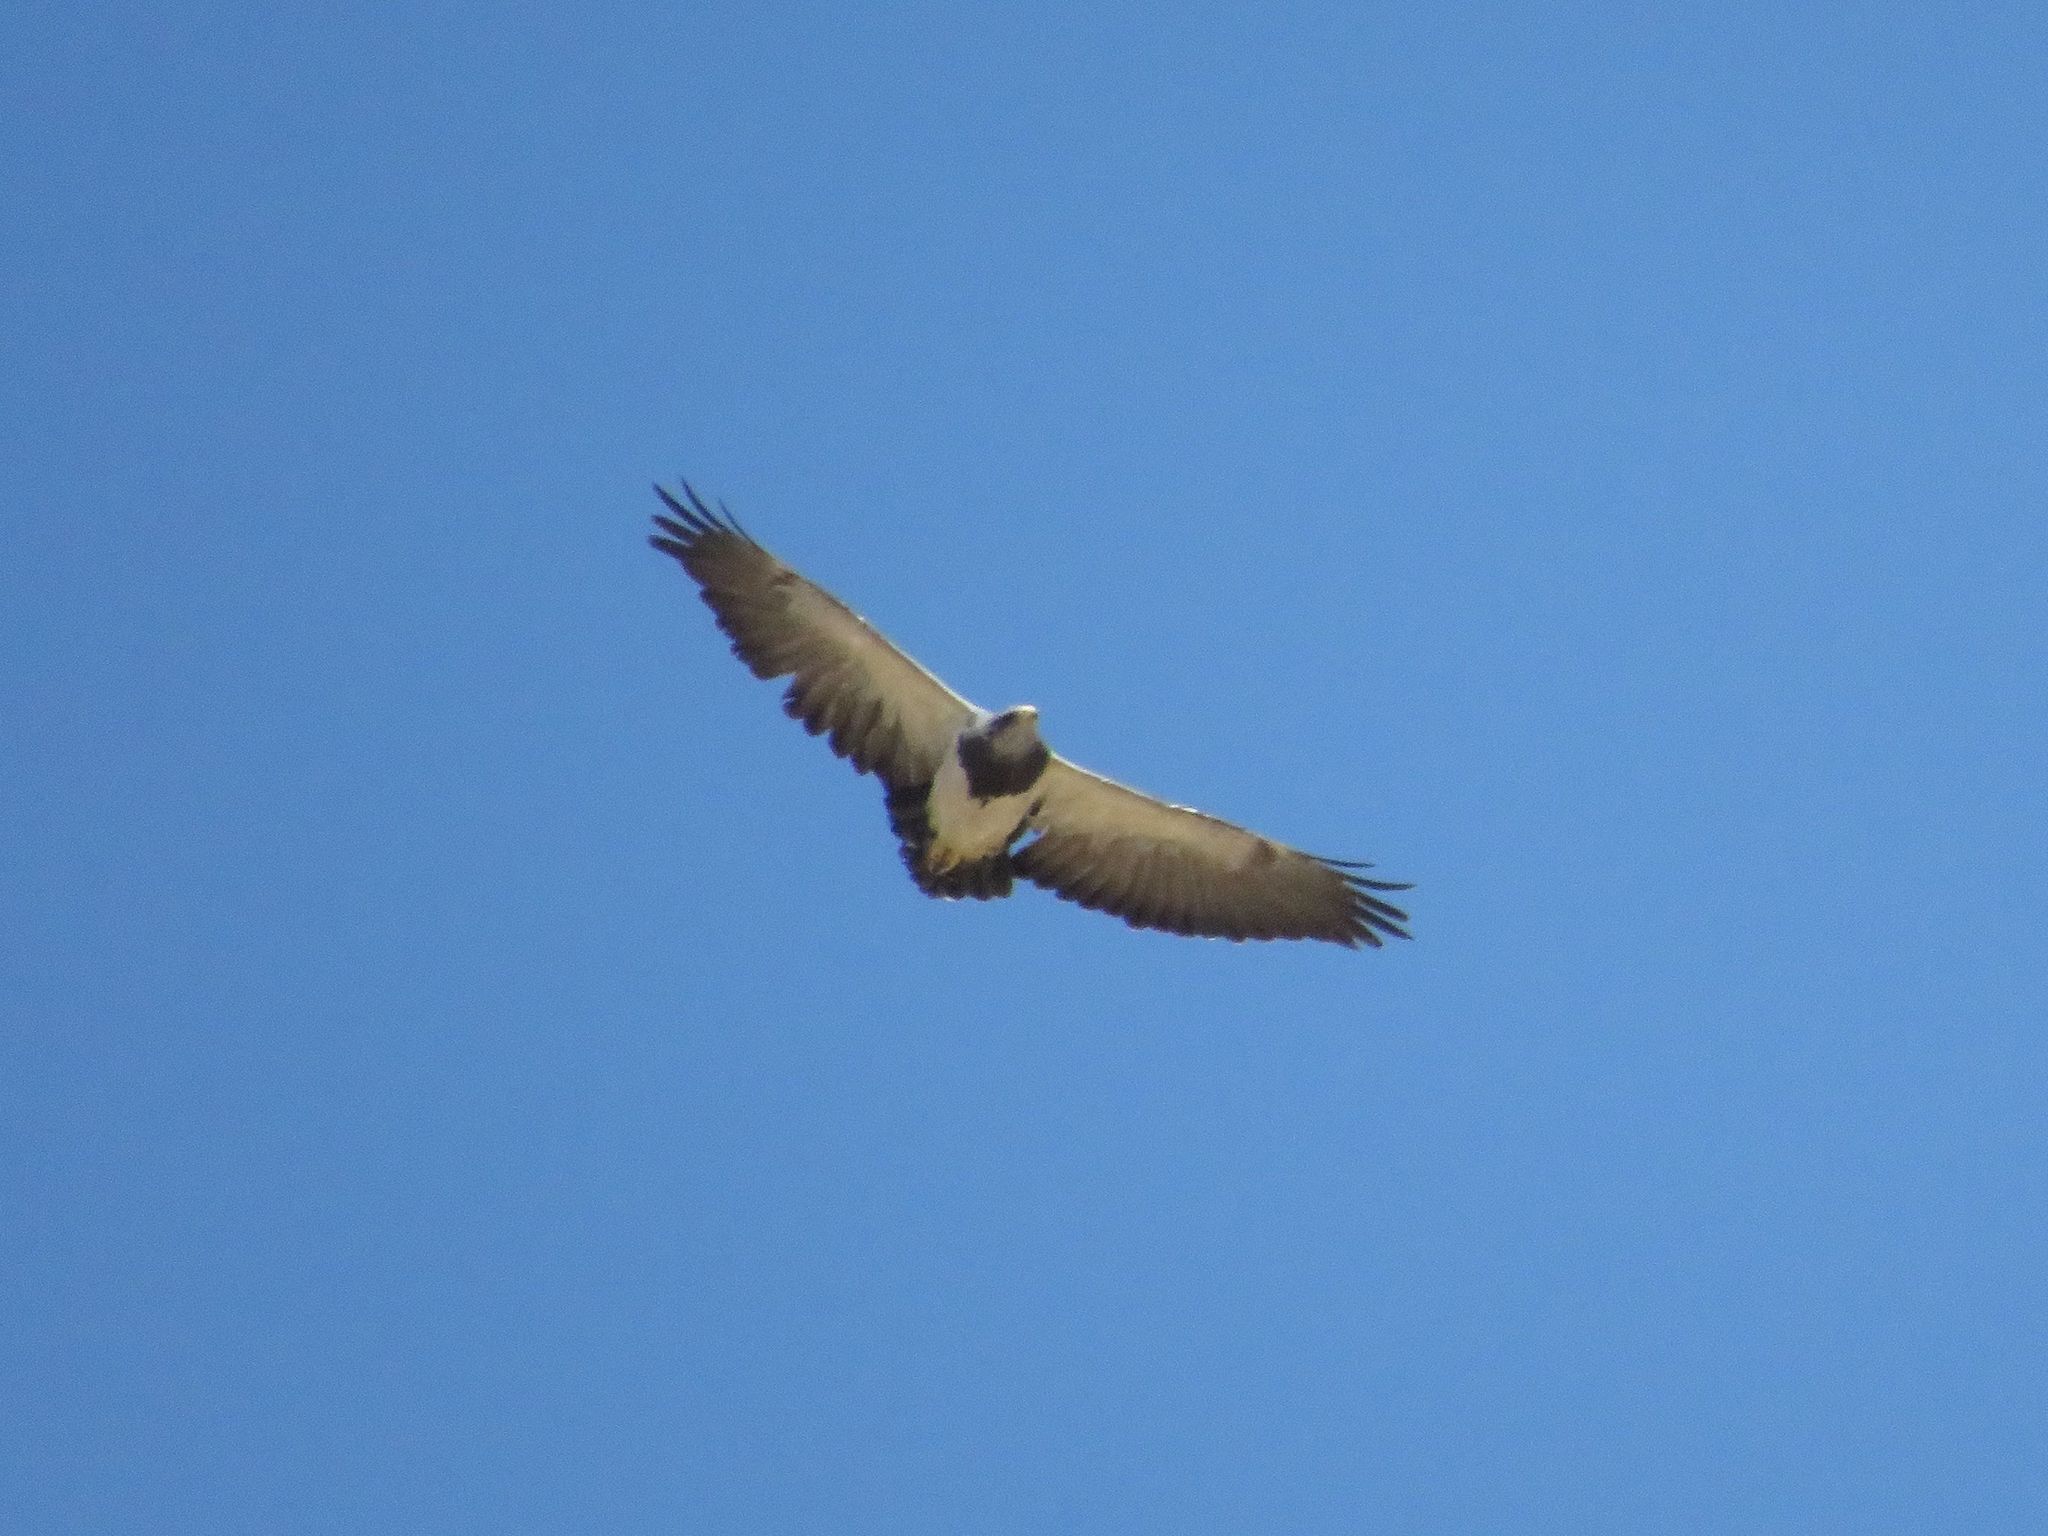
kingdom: Animalia
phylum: Chordata
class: Aves
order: Accipitriformes
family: Accipitridae
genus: Geranoaetus
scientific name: Geranoaetus melanoleucus
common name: Black-chested buzzard-eagle
